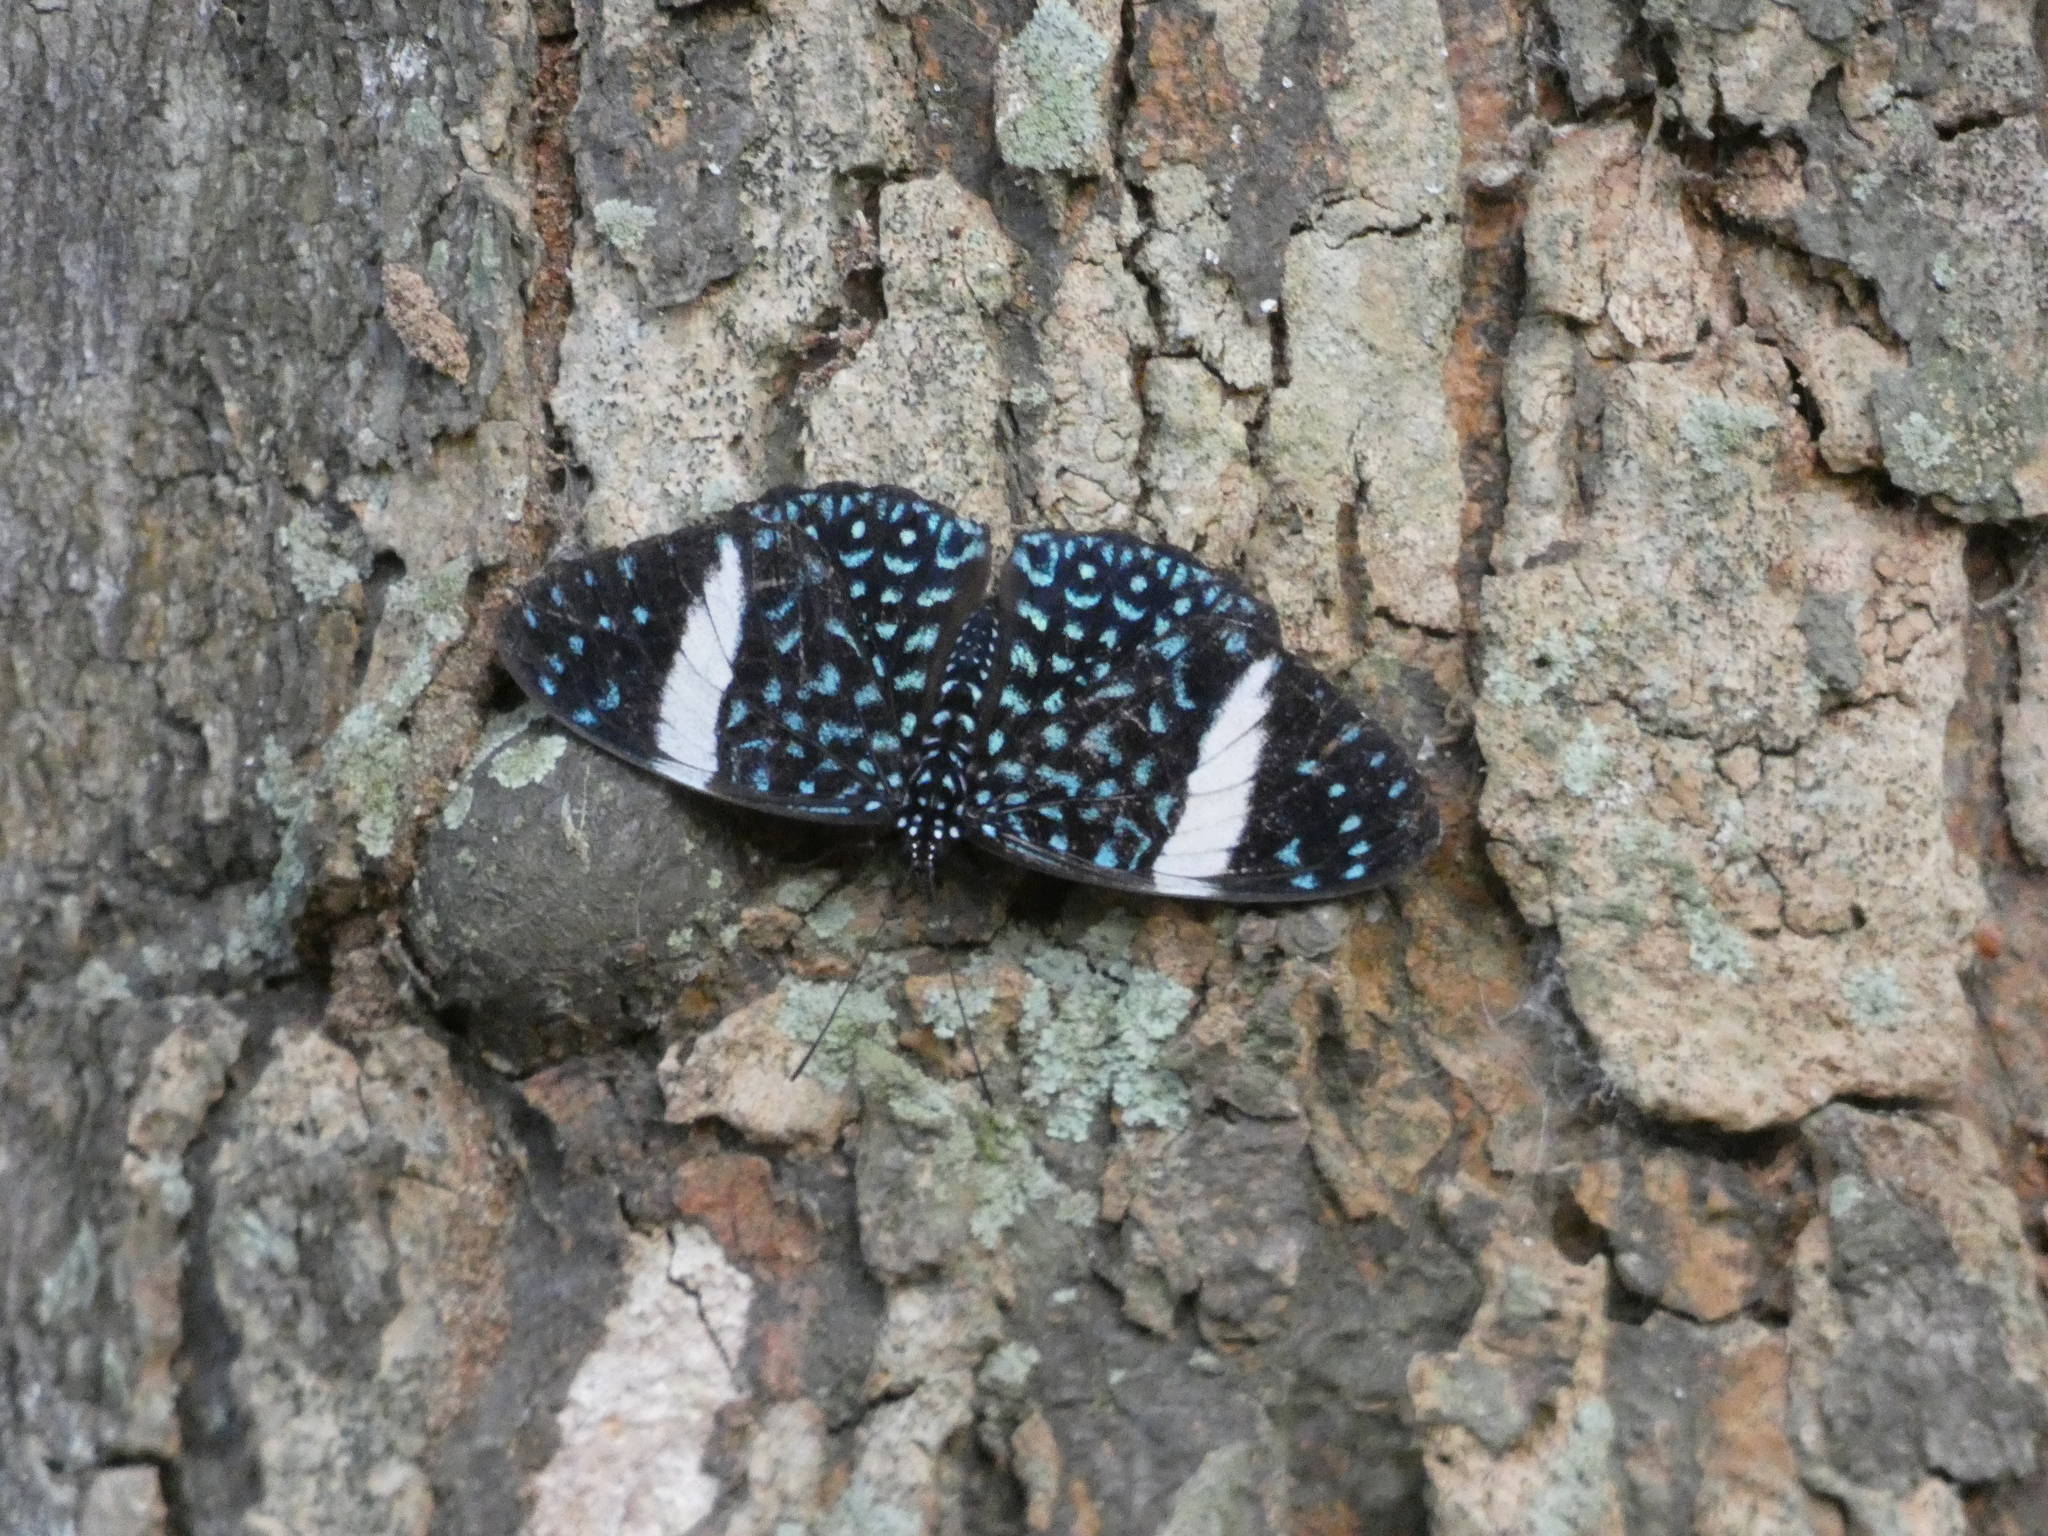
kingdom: Animalia
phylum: Arthropoda
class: Insecta
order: Lepidoptera
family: Nymphalidae
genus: Hamadryas
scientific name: Hamadryas laodamia
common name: Starry night cracker
